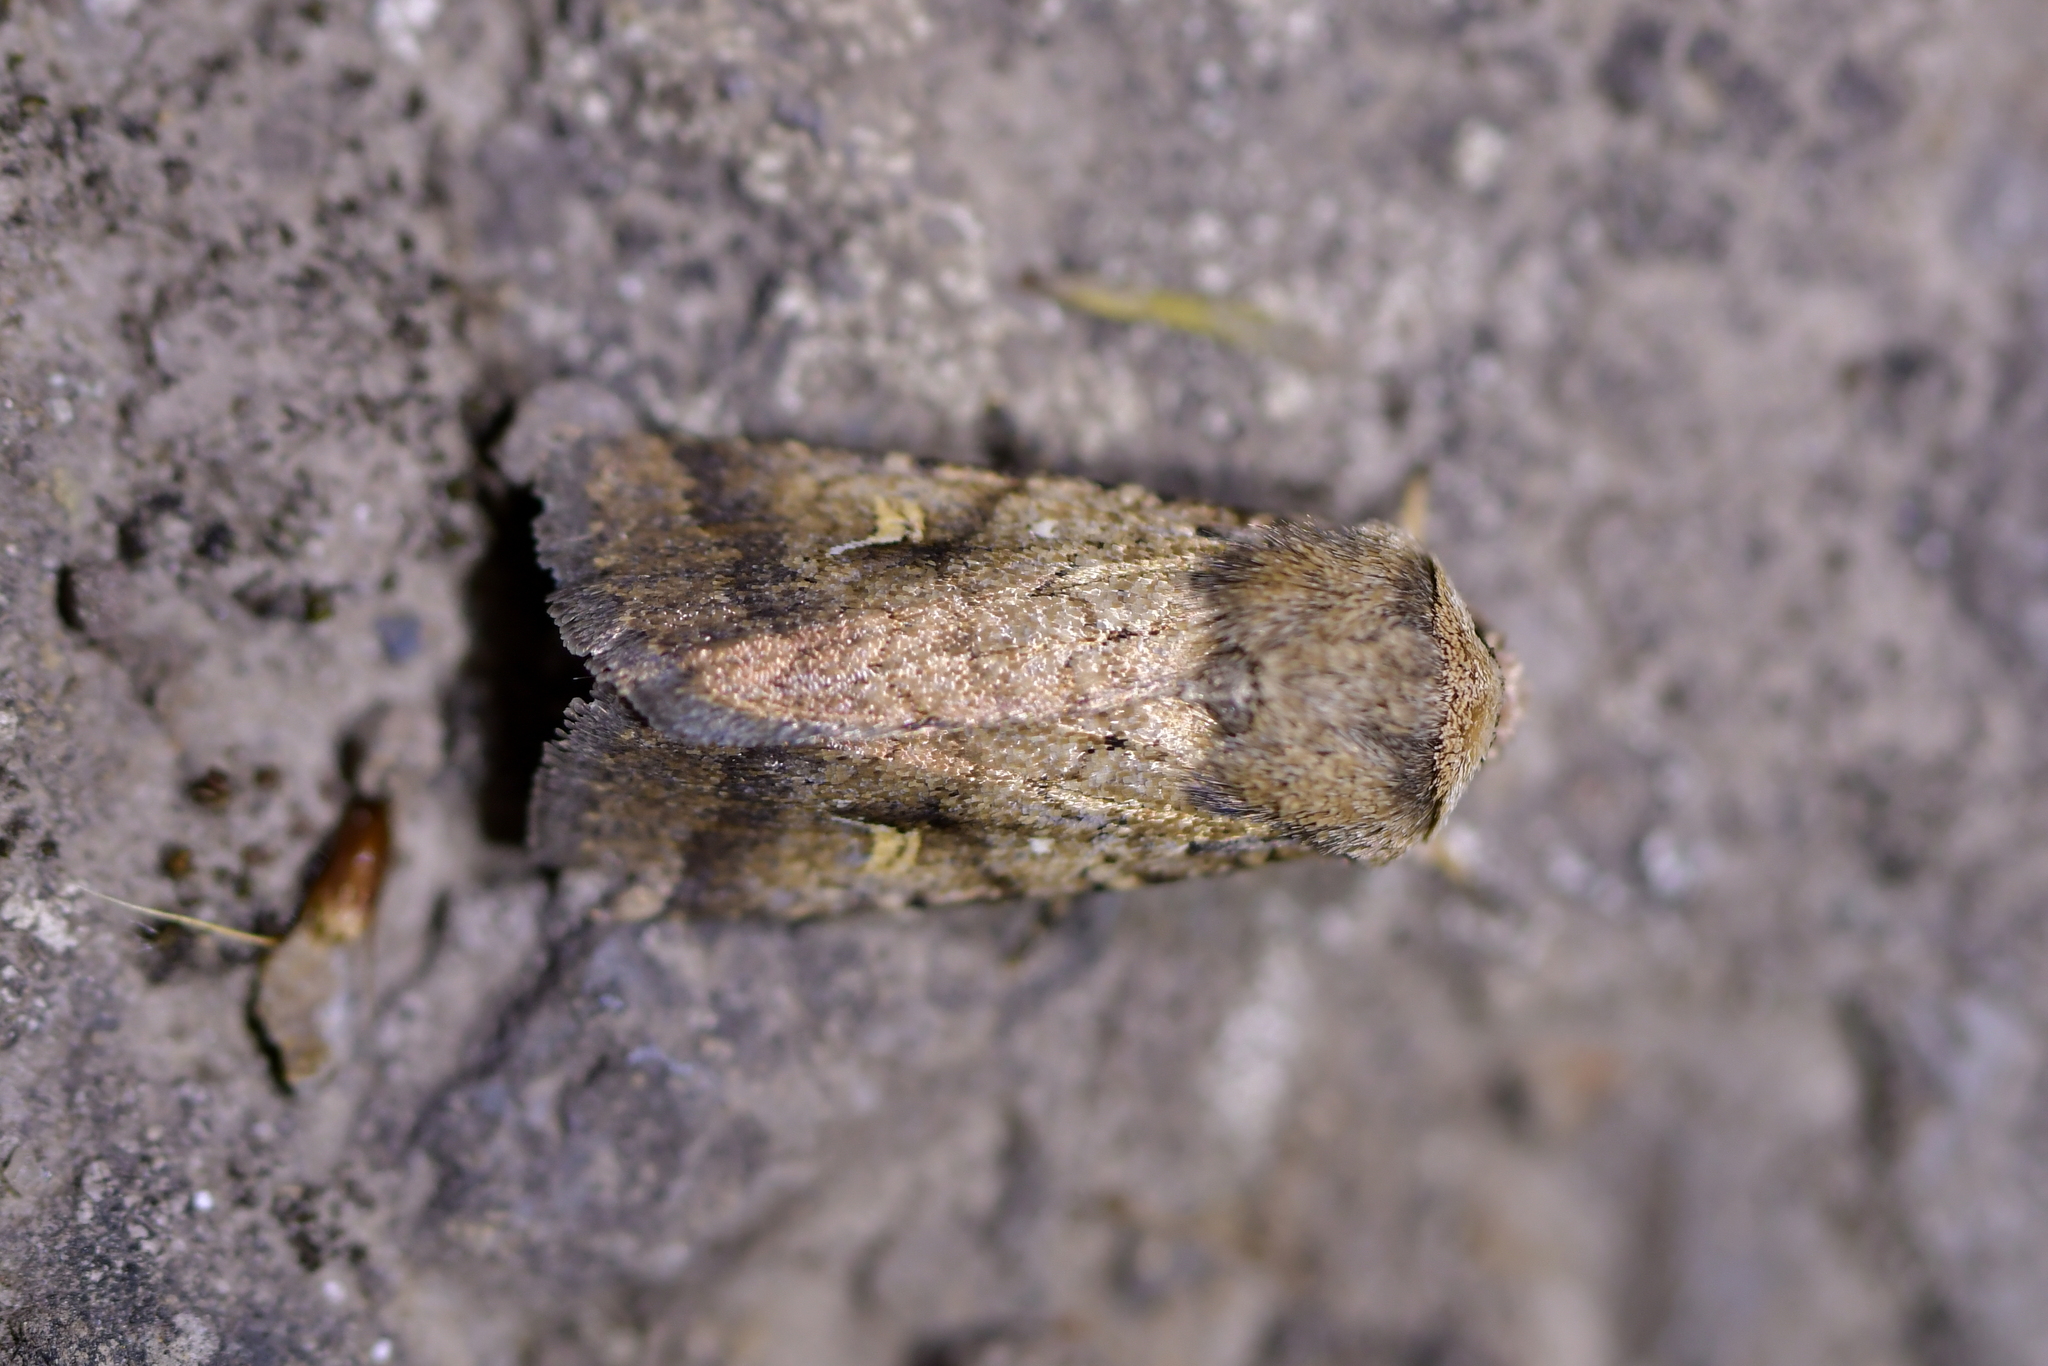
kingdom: Animalia
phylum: Arthropoda
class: Insecta
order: Lepidoptera
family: Noctuidae
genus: Proteuxoa
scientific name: Proteuxoa tetronycha
